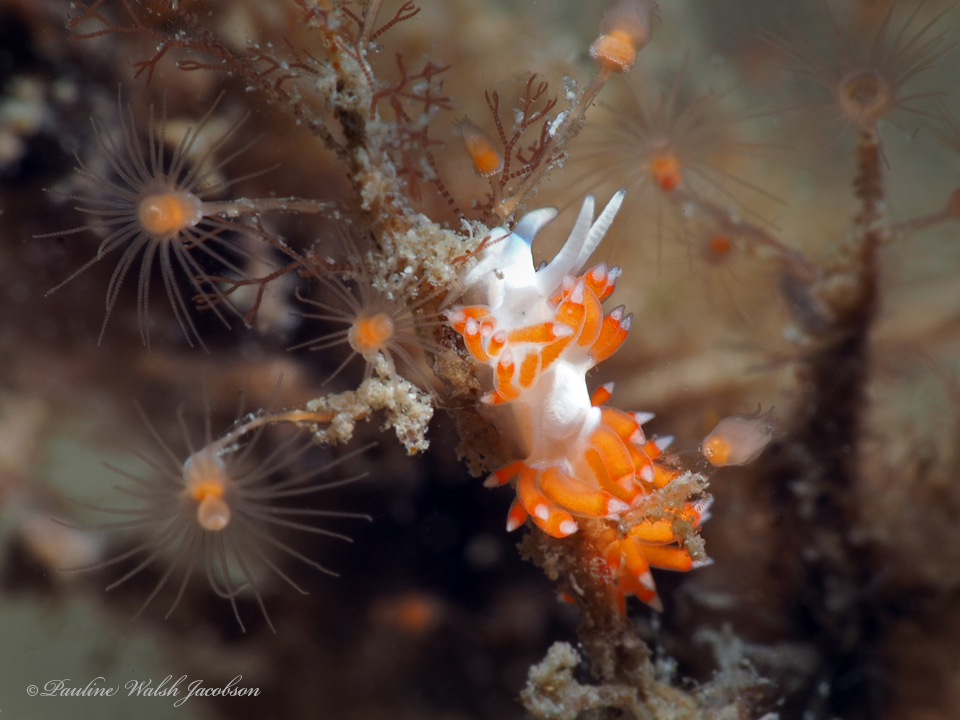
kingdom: Animalia
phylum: Mollusca
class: Gastropoda
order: Nudibranchia
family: Flabellinidae
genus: Flabellina
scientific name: Flabellina dushia
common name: Dushia flabellina
